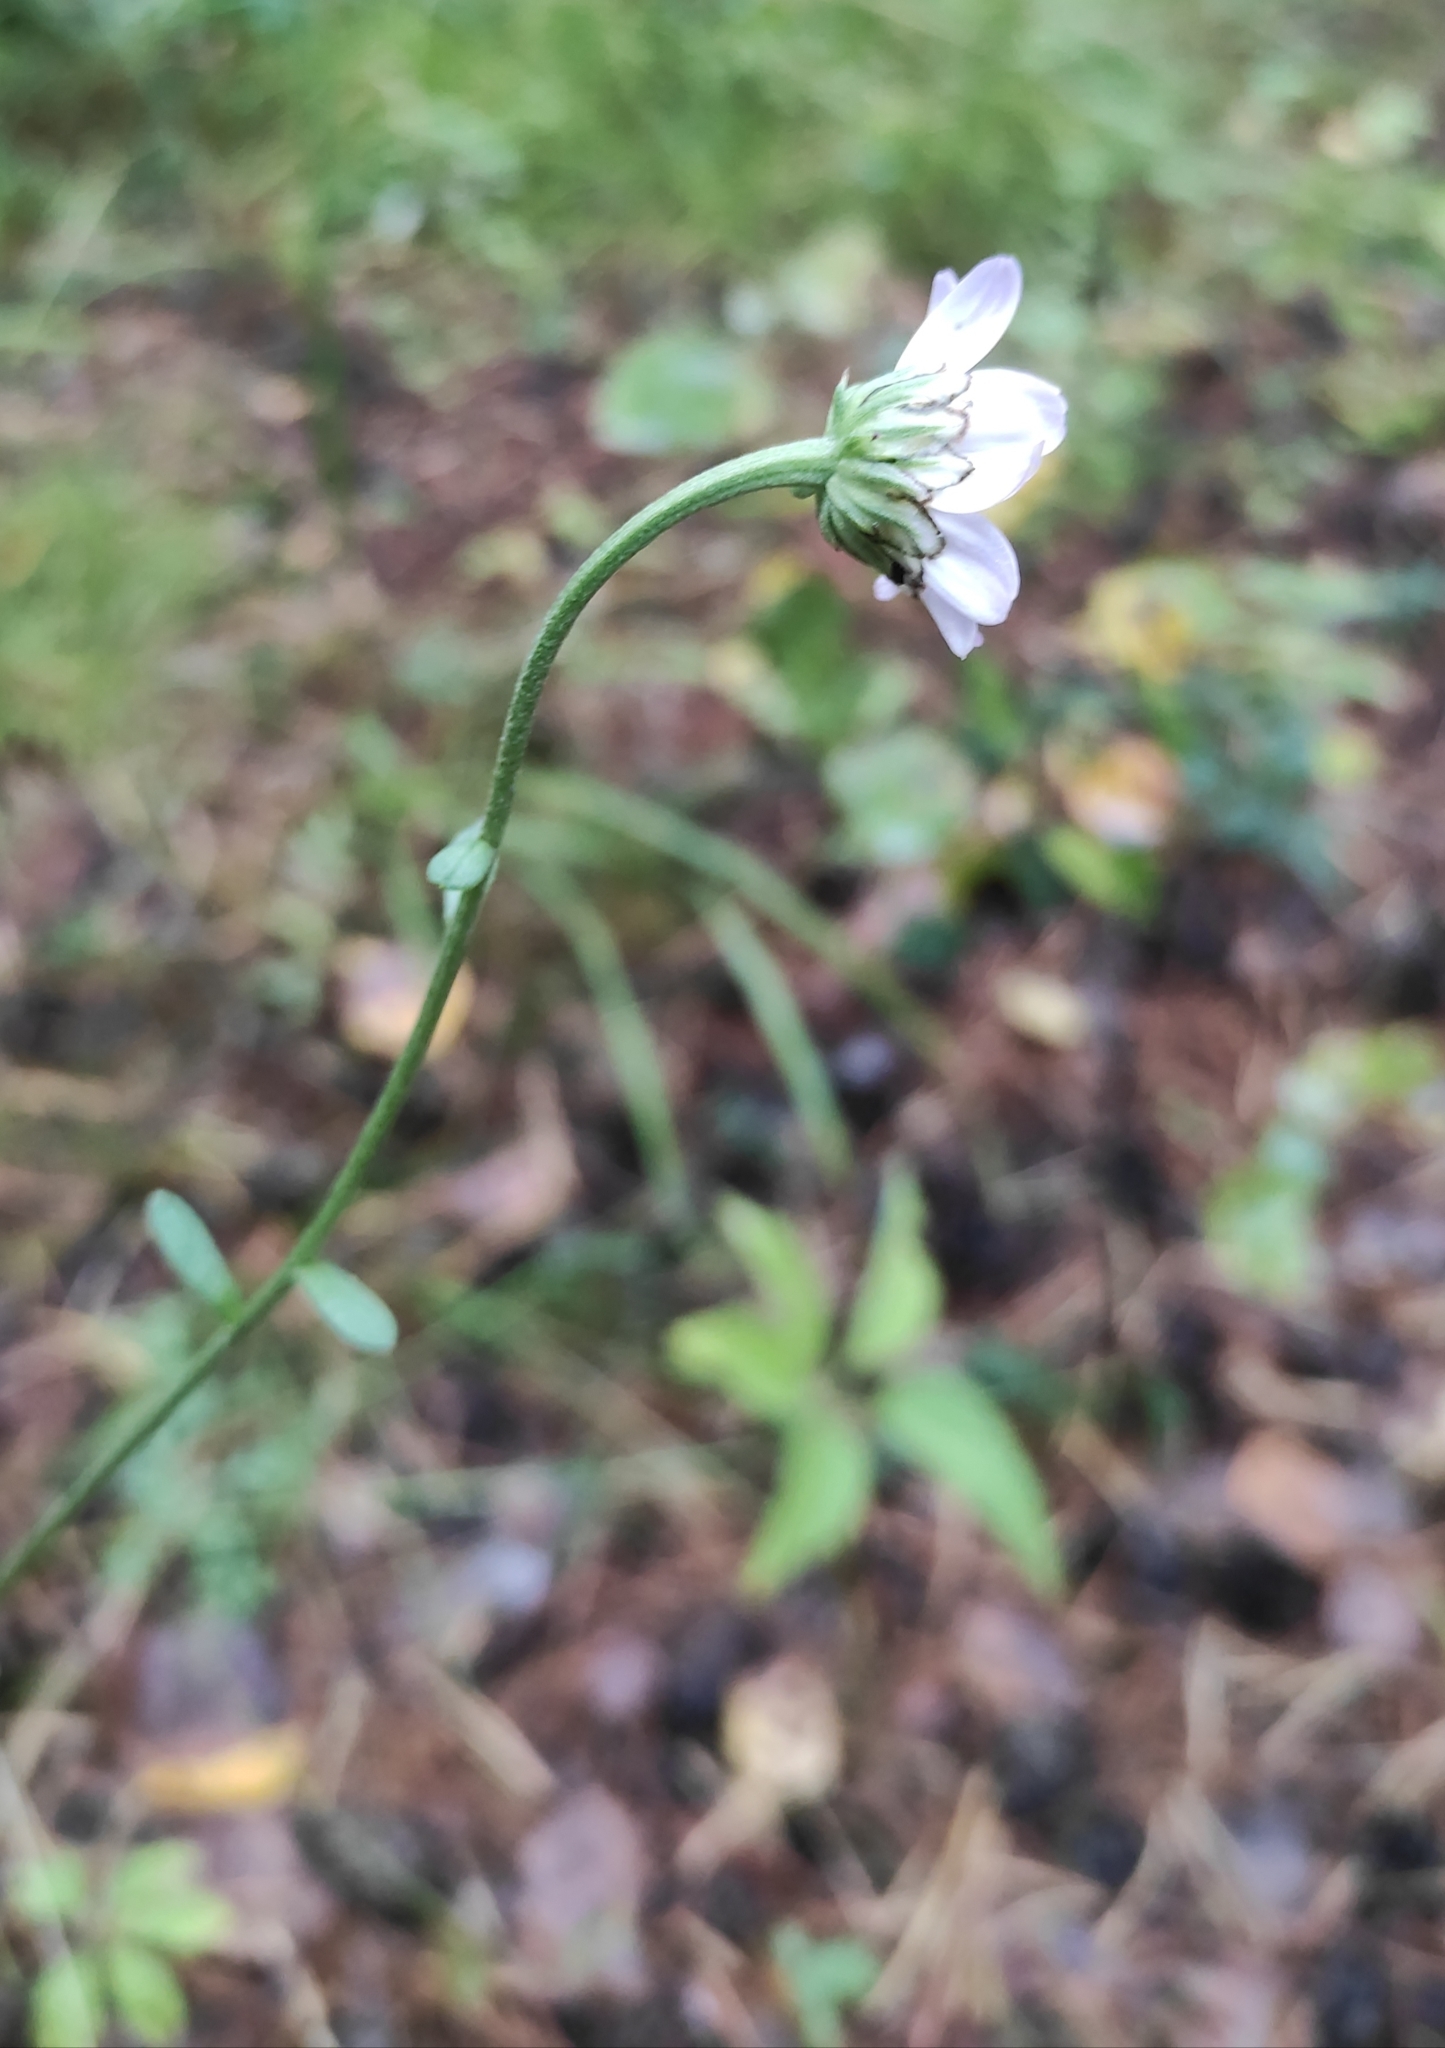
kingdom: Plantae
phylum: Tracheophyta
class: Magnoliopsida
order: Asterales
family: Asteraceae
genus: Chrysanthemum
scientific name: Chrysanthemum zawadzkii
